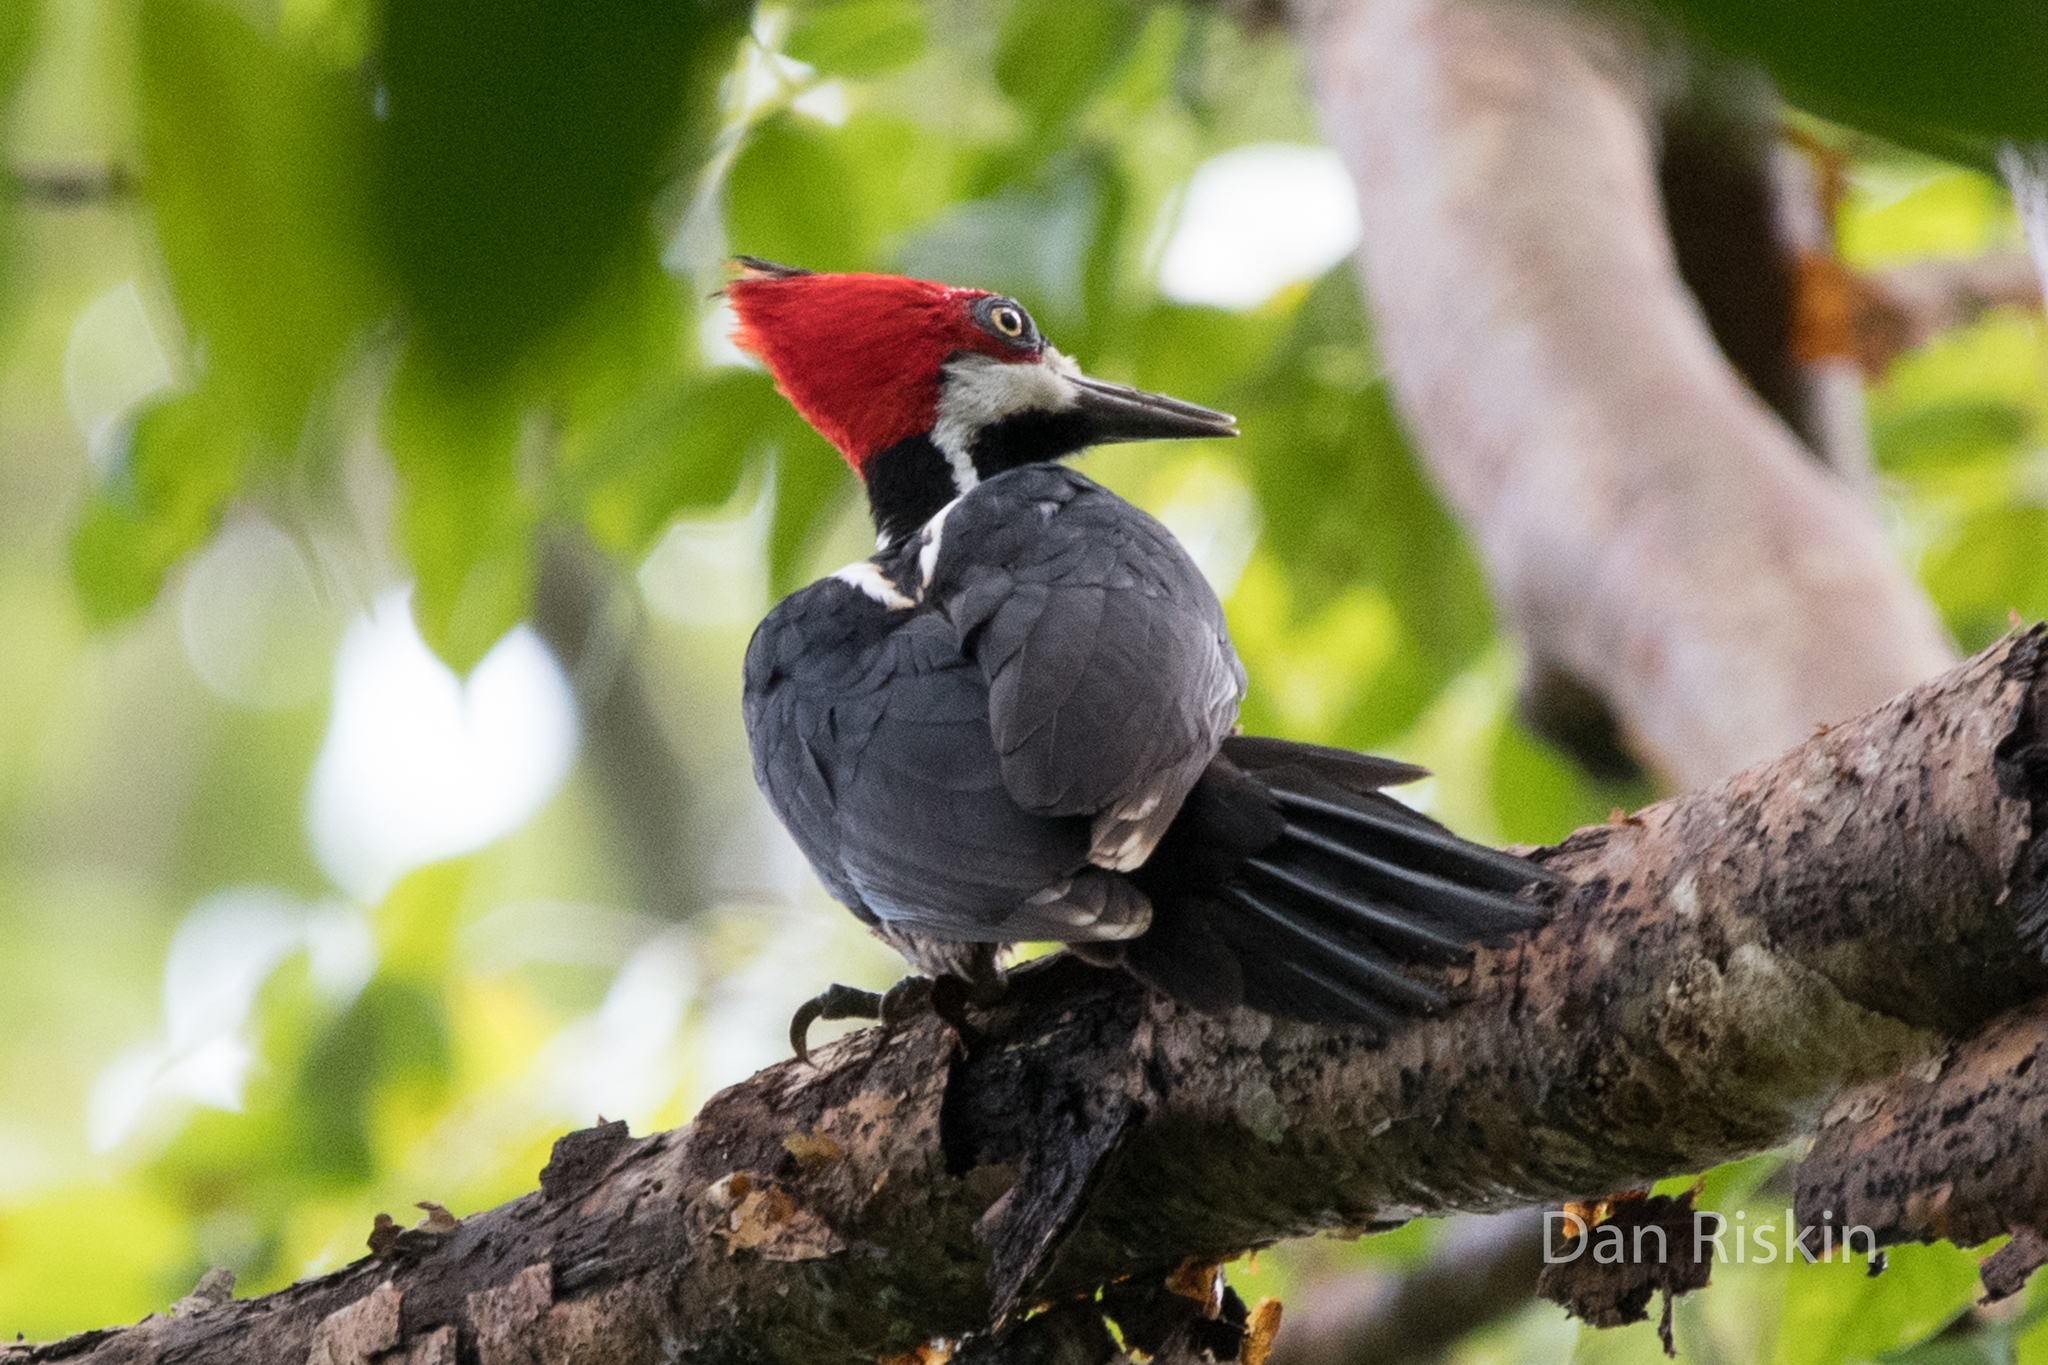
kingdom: Animalia
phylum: Chordata
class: Aves
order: Piciformes
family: Picidae
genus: Campephilus
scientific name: Campephilus melanoleucos
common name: Crimson-crested woodpecker
